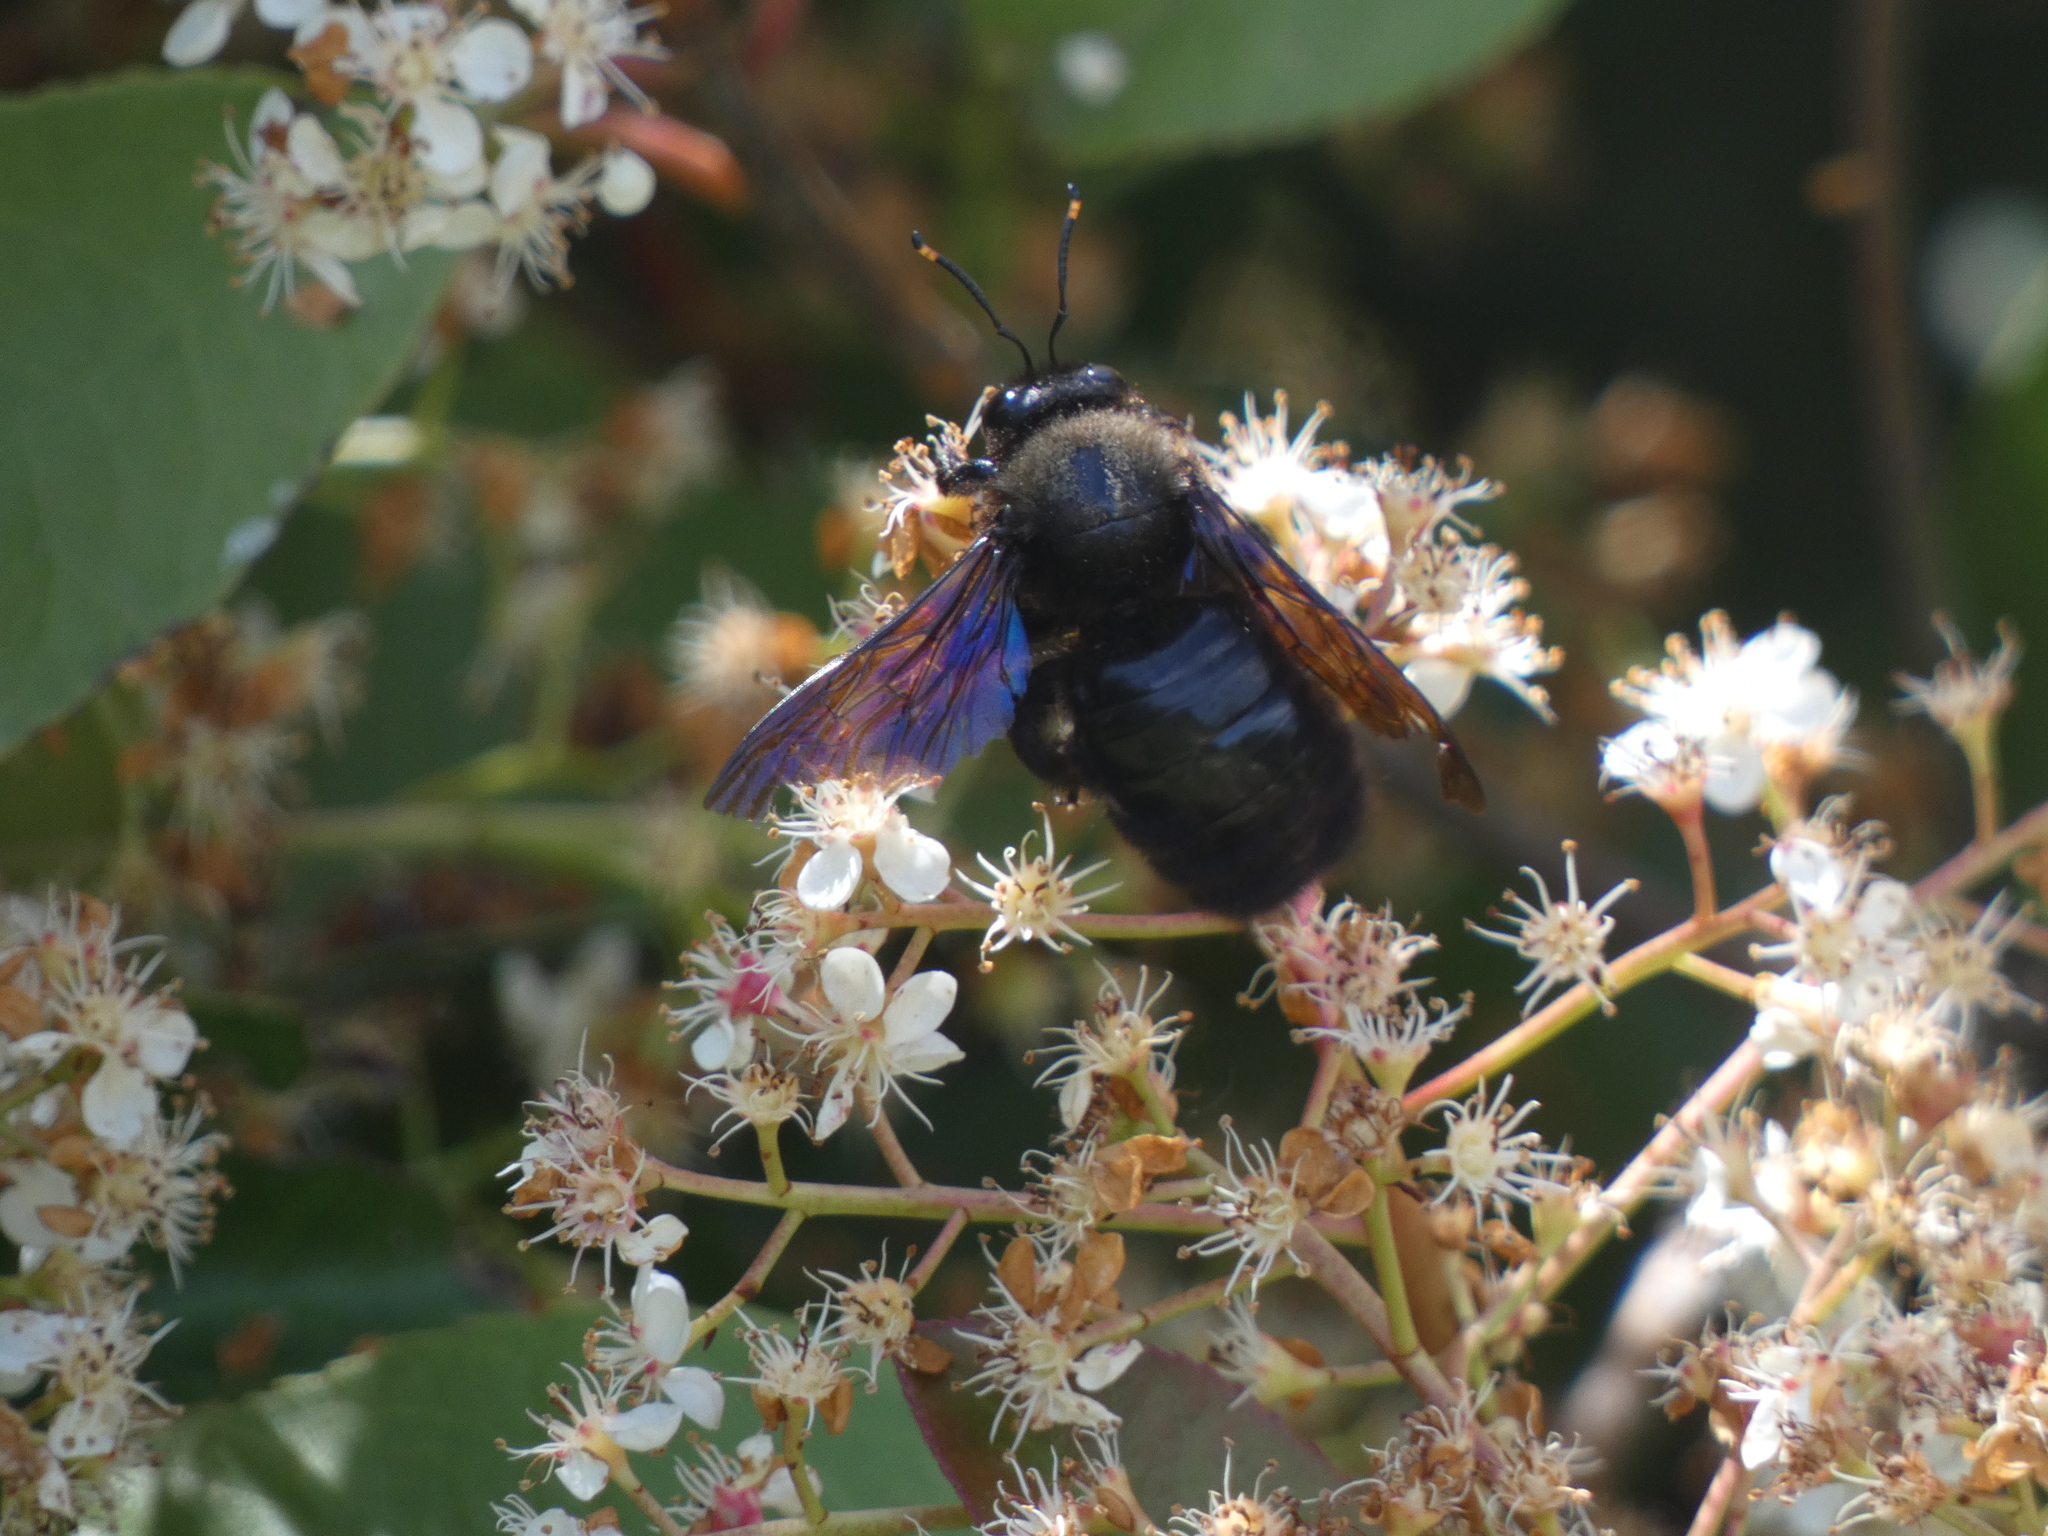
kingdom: Animalia
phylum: Arthropoda
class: Insecta
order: Hymenoptera
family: Apidae
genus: Xylocopa
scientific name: Xylocopa violacea
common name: Violet carpenter bee
